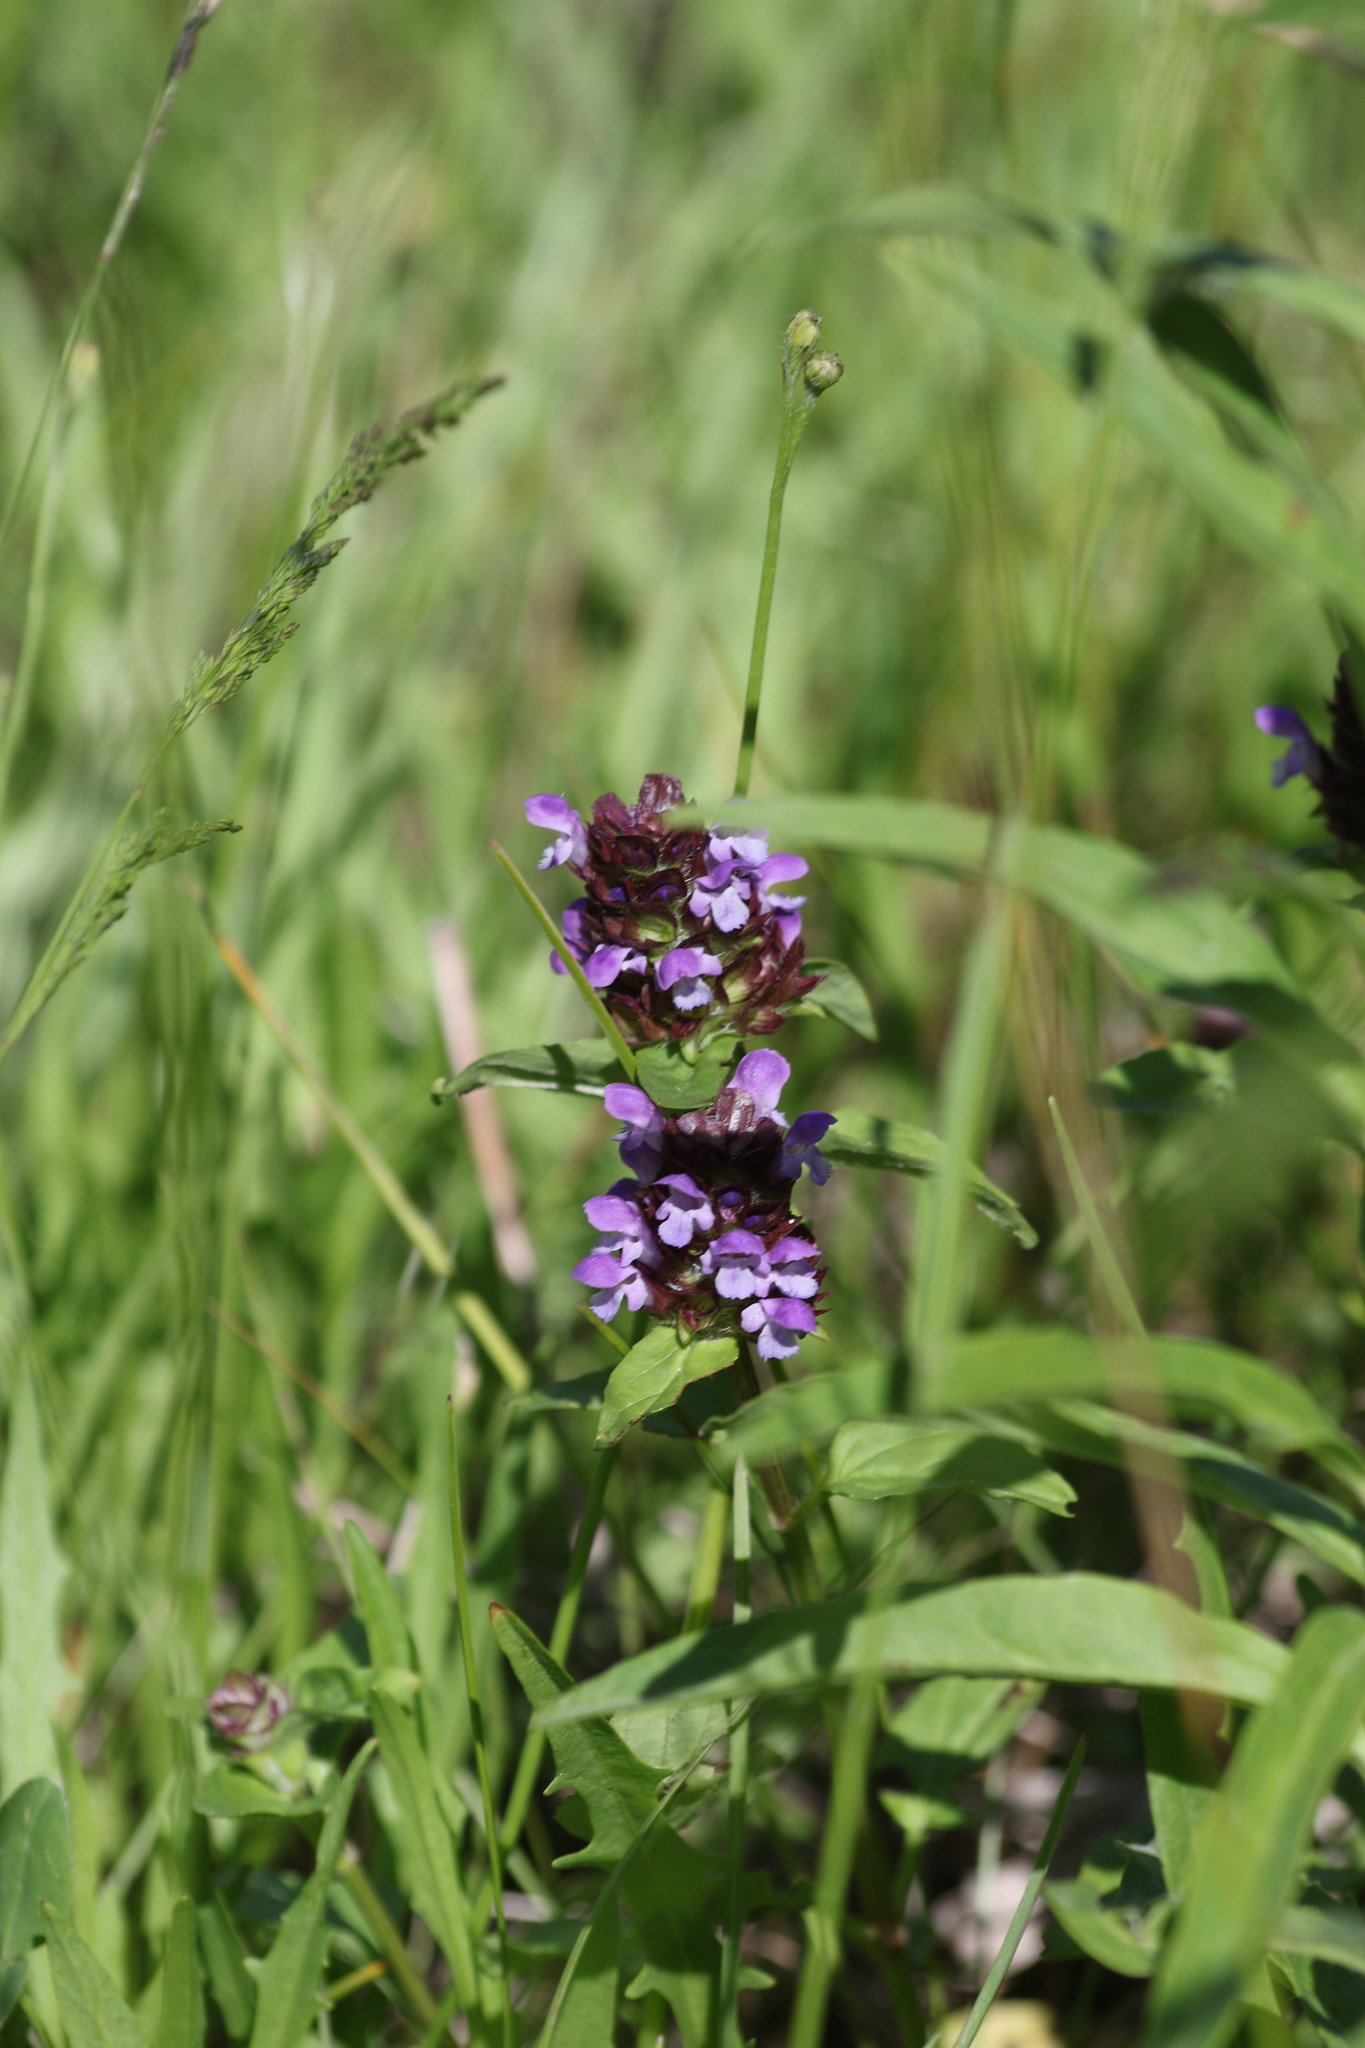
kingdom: Plantae
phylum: Tracheophyta
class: Magnoliopsida
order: Lamiales
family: Lamiaceae
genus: Prunella
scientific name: Prunella vulgaris
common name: Heal-all
